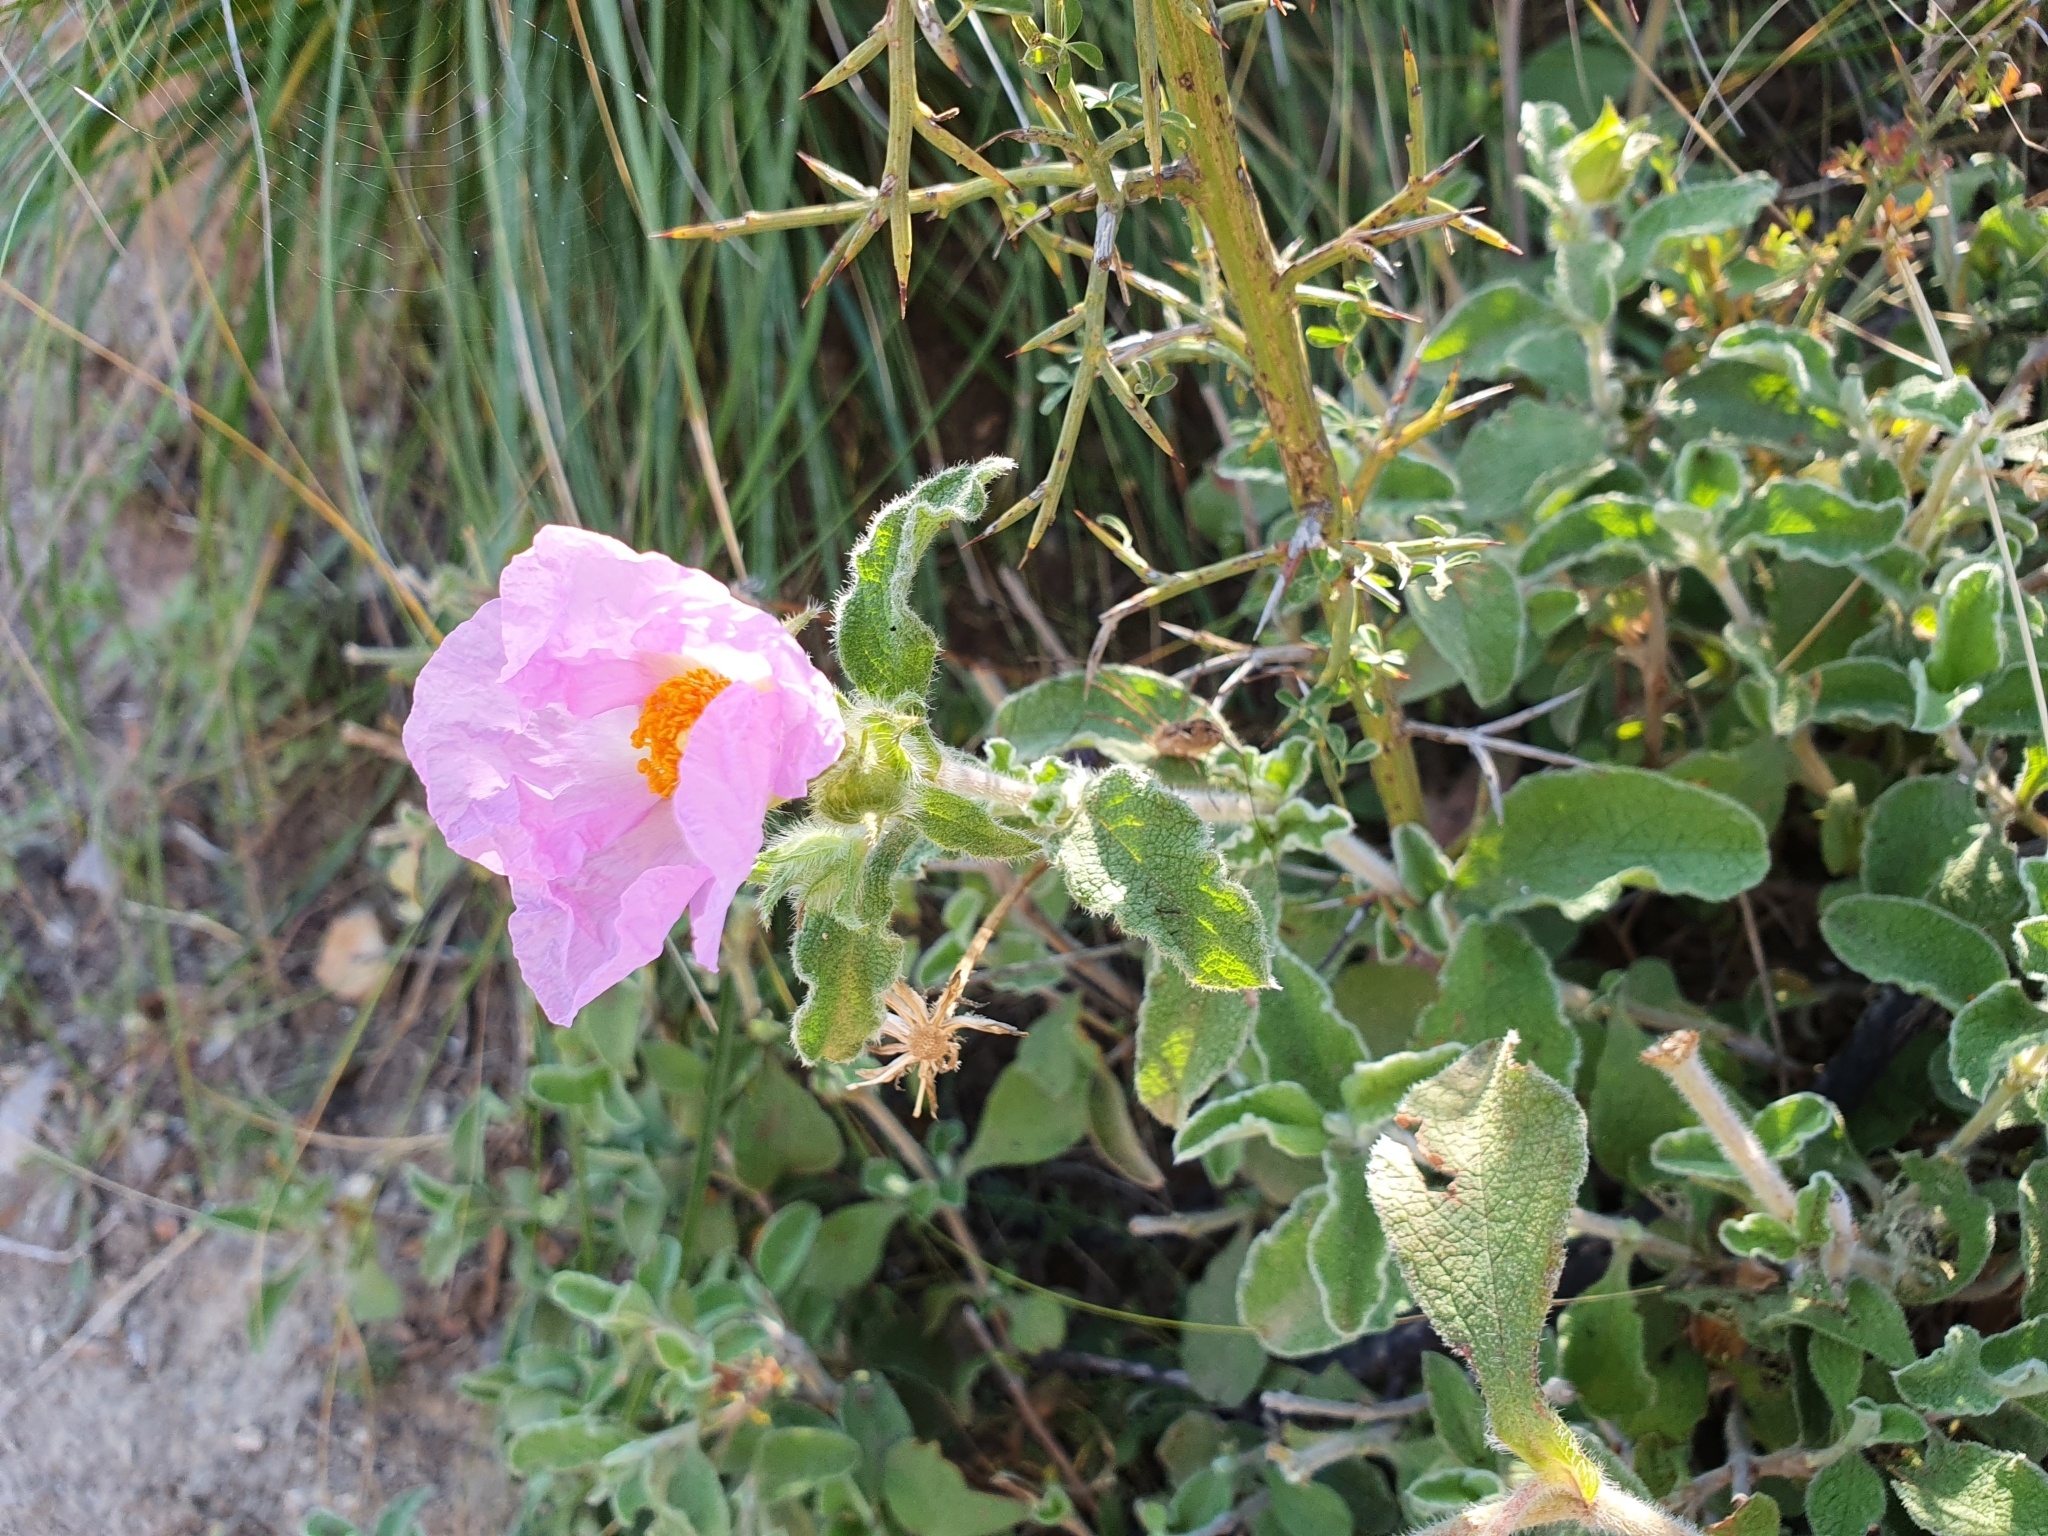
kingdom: Plantae
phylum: Tracheophyta
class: Magnoliopsida
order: Malvales
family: Cistaceae
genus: Cistus
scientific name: Cistus creticus
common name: Cretan rockrose
